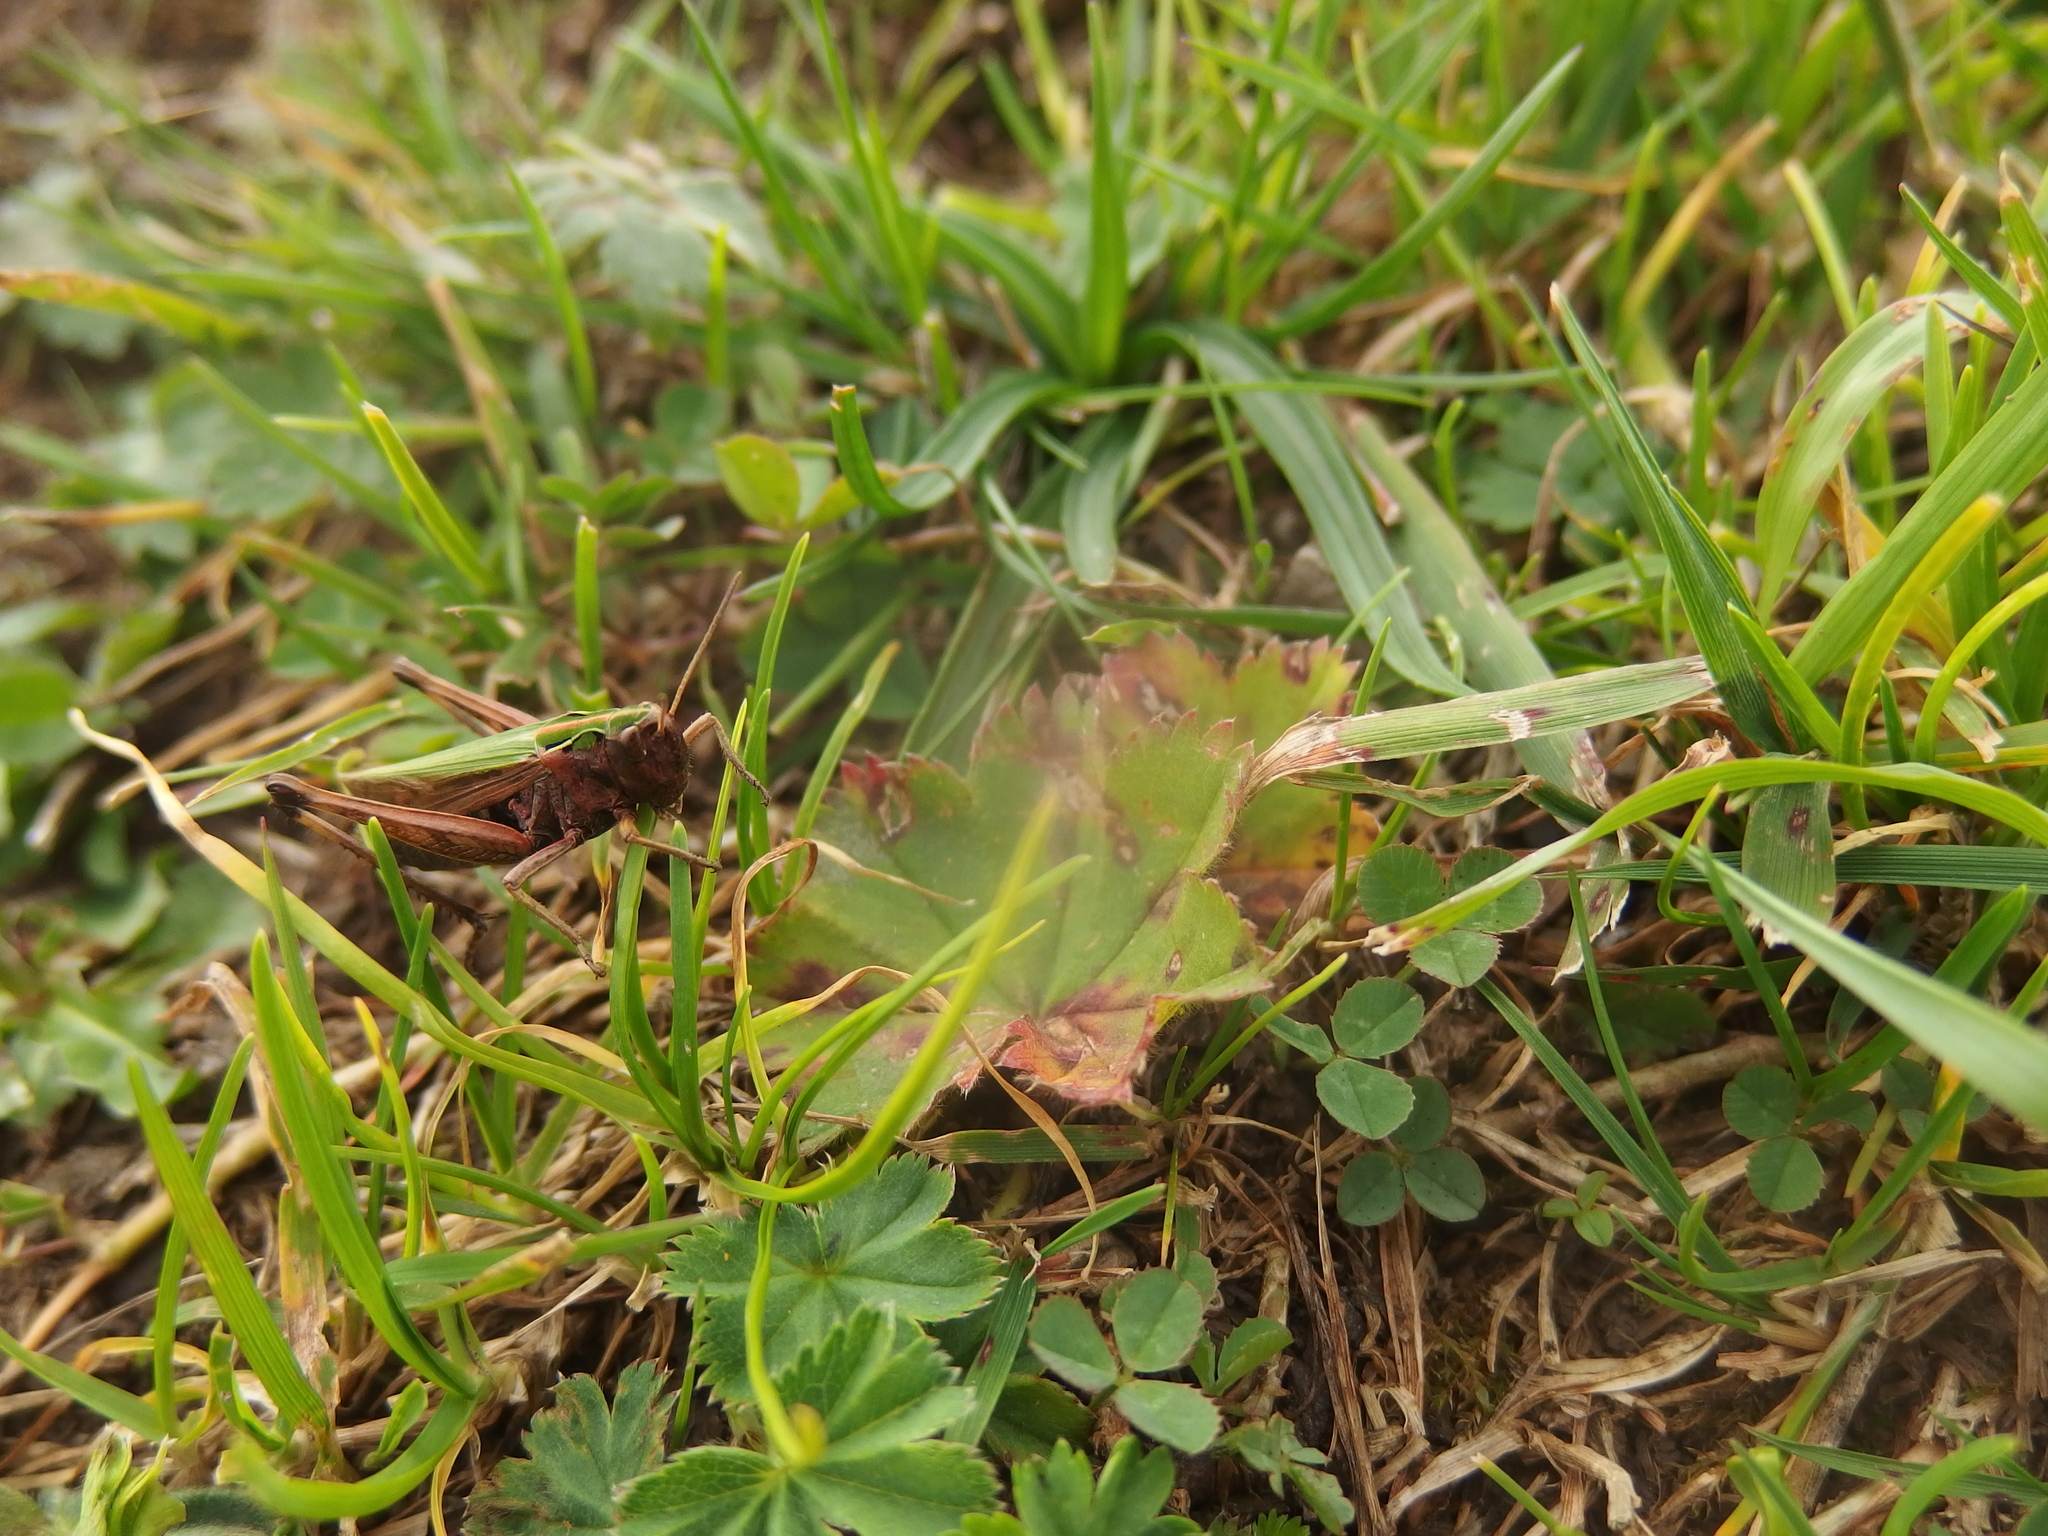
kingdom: Animalia
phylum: Arthropoda
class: Insecta
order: Orthoptera
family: Acrididae
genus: Omocestus
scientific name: Omocestus rufipes
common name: Woodland grasshopper
